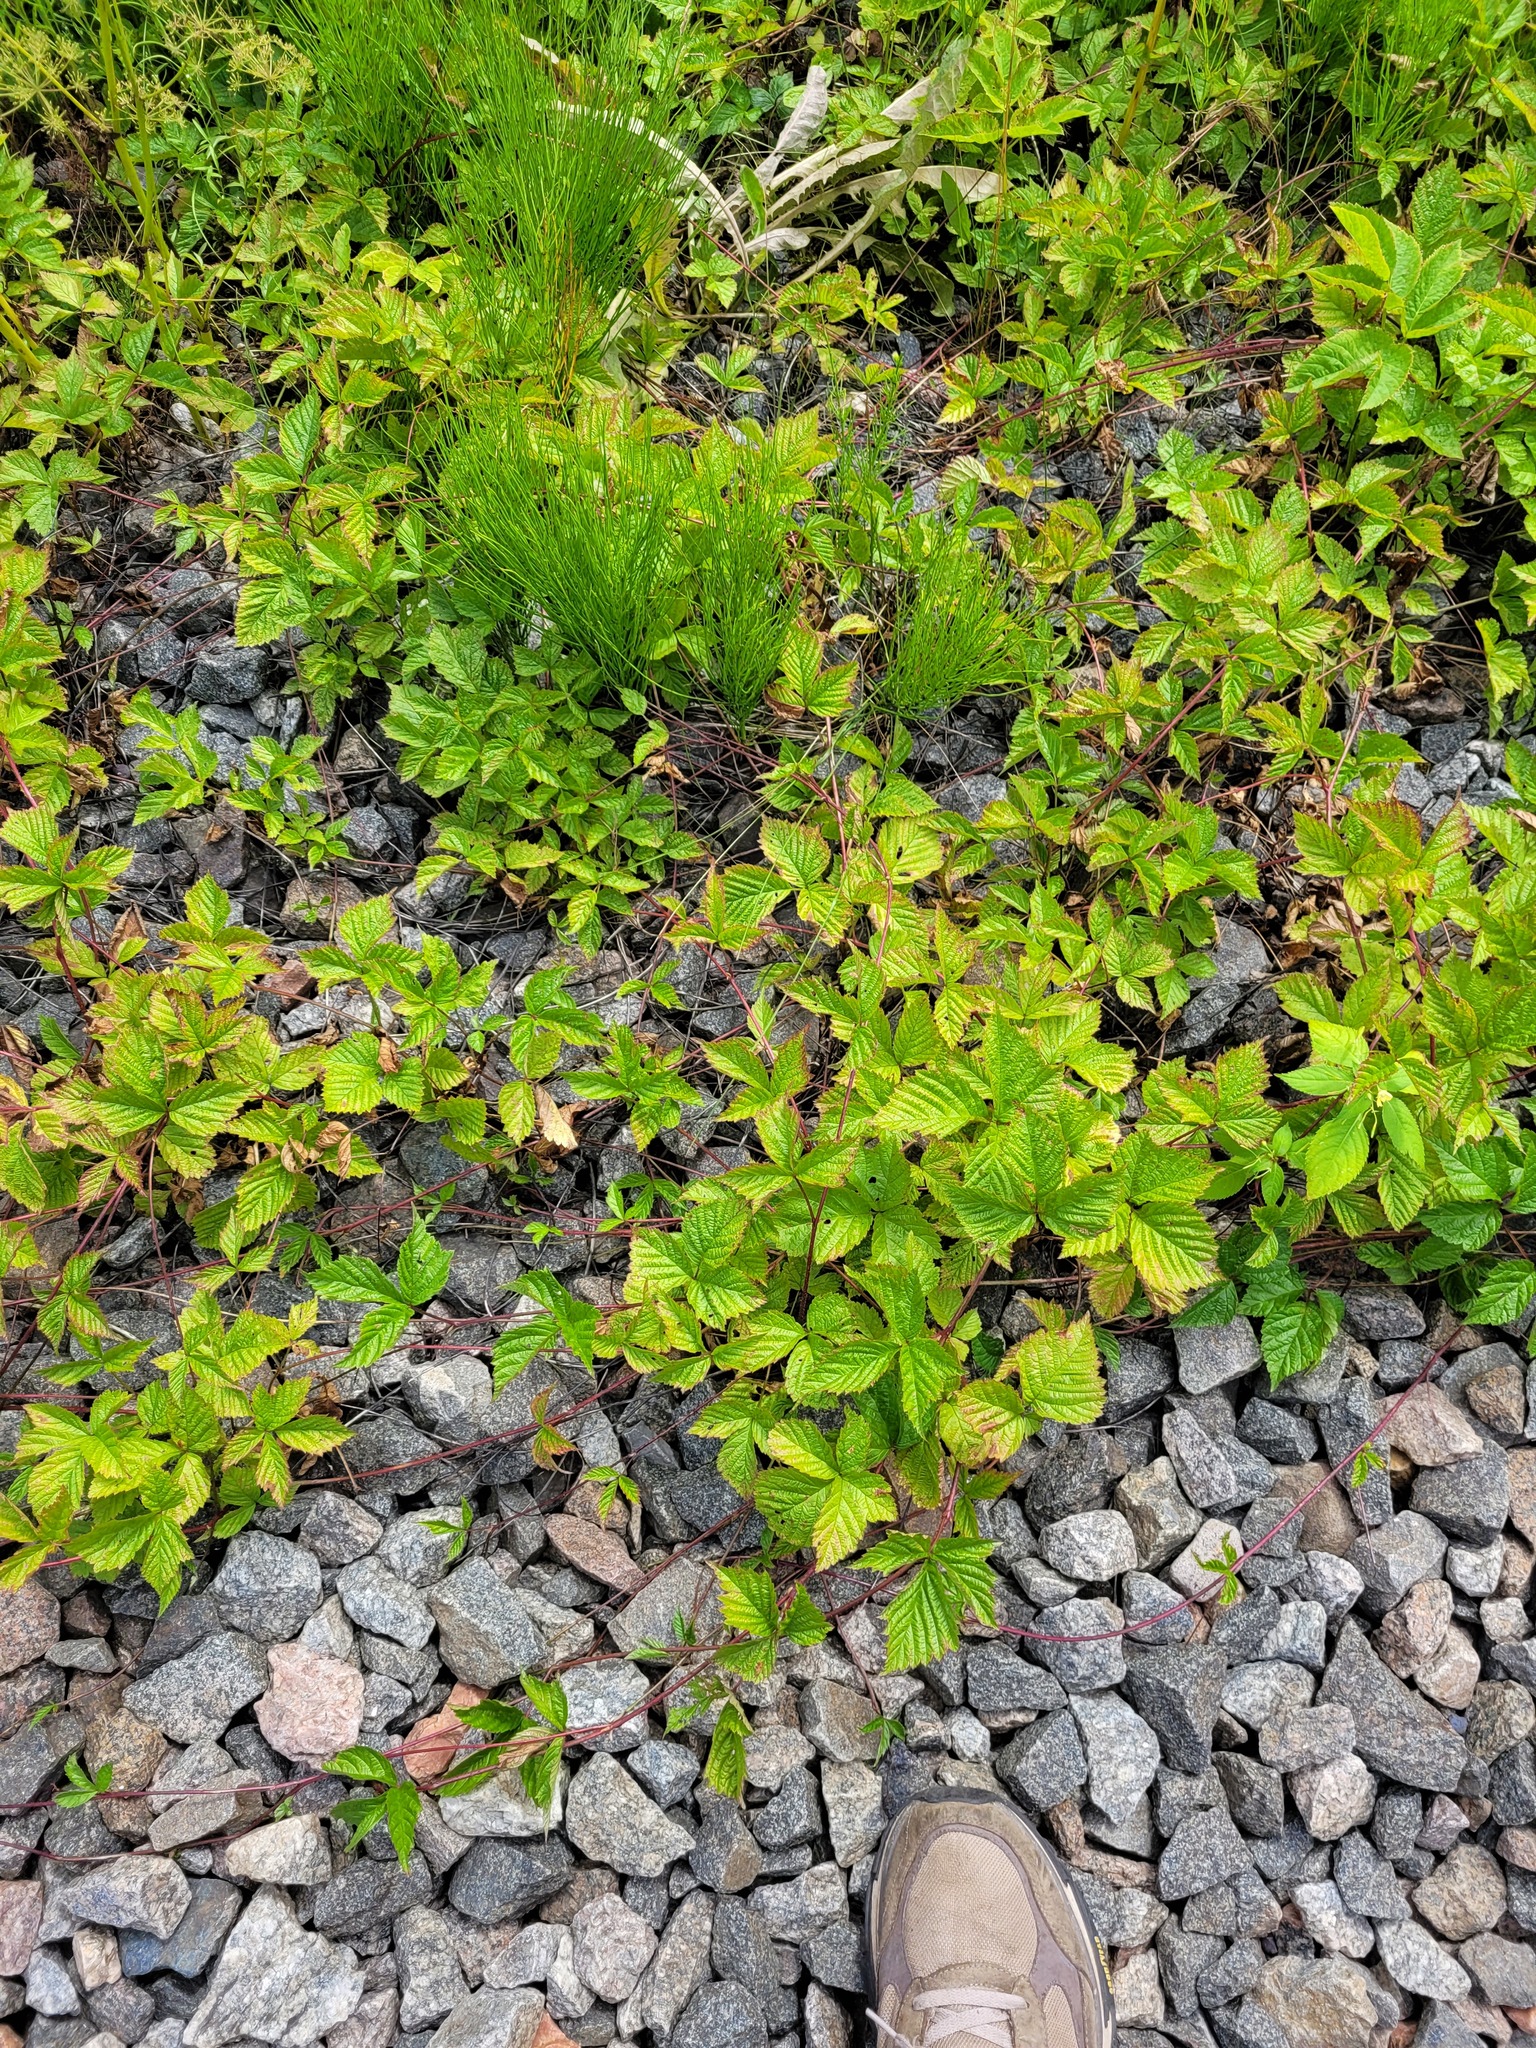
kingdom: Plantae
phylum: Tracheophyta
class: Magnoliopsida
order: Rosales
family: Rosaceae
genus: Rubus
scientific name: Rubus saxatilis
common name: Stone bramble
